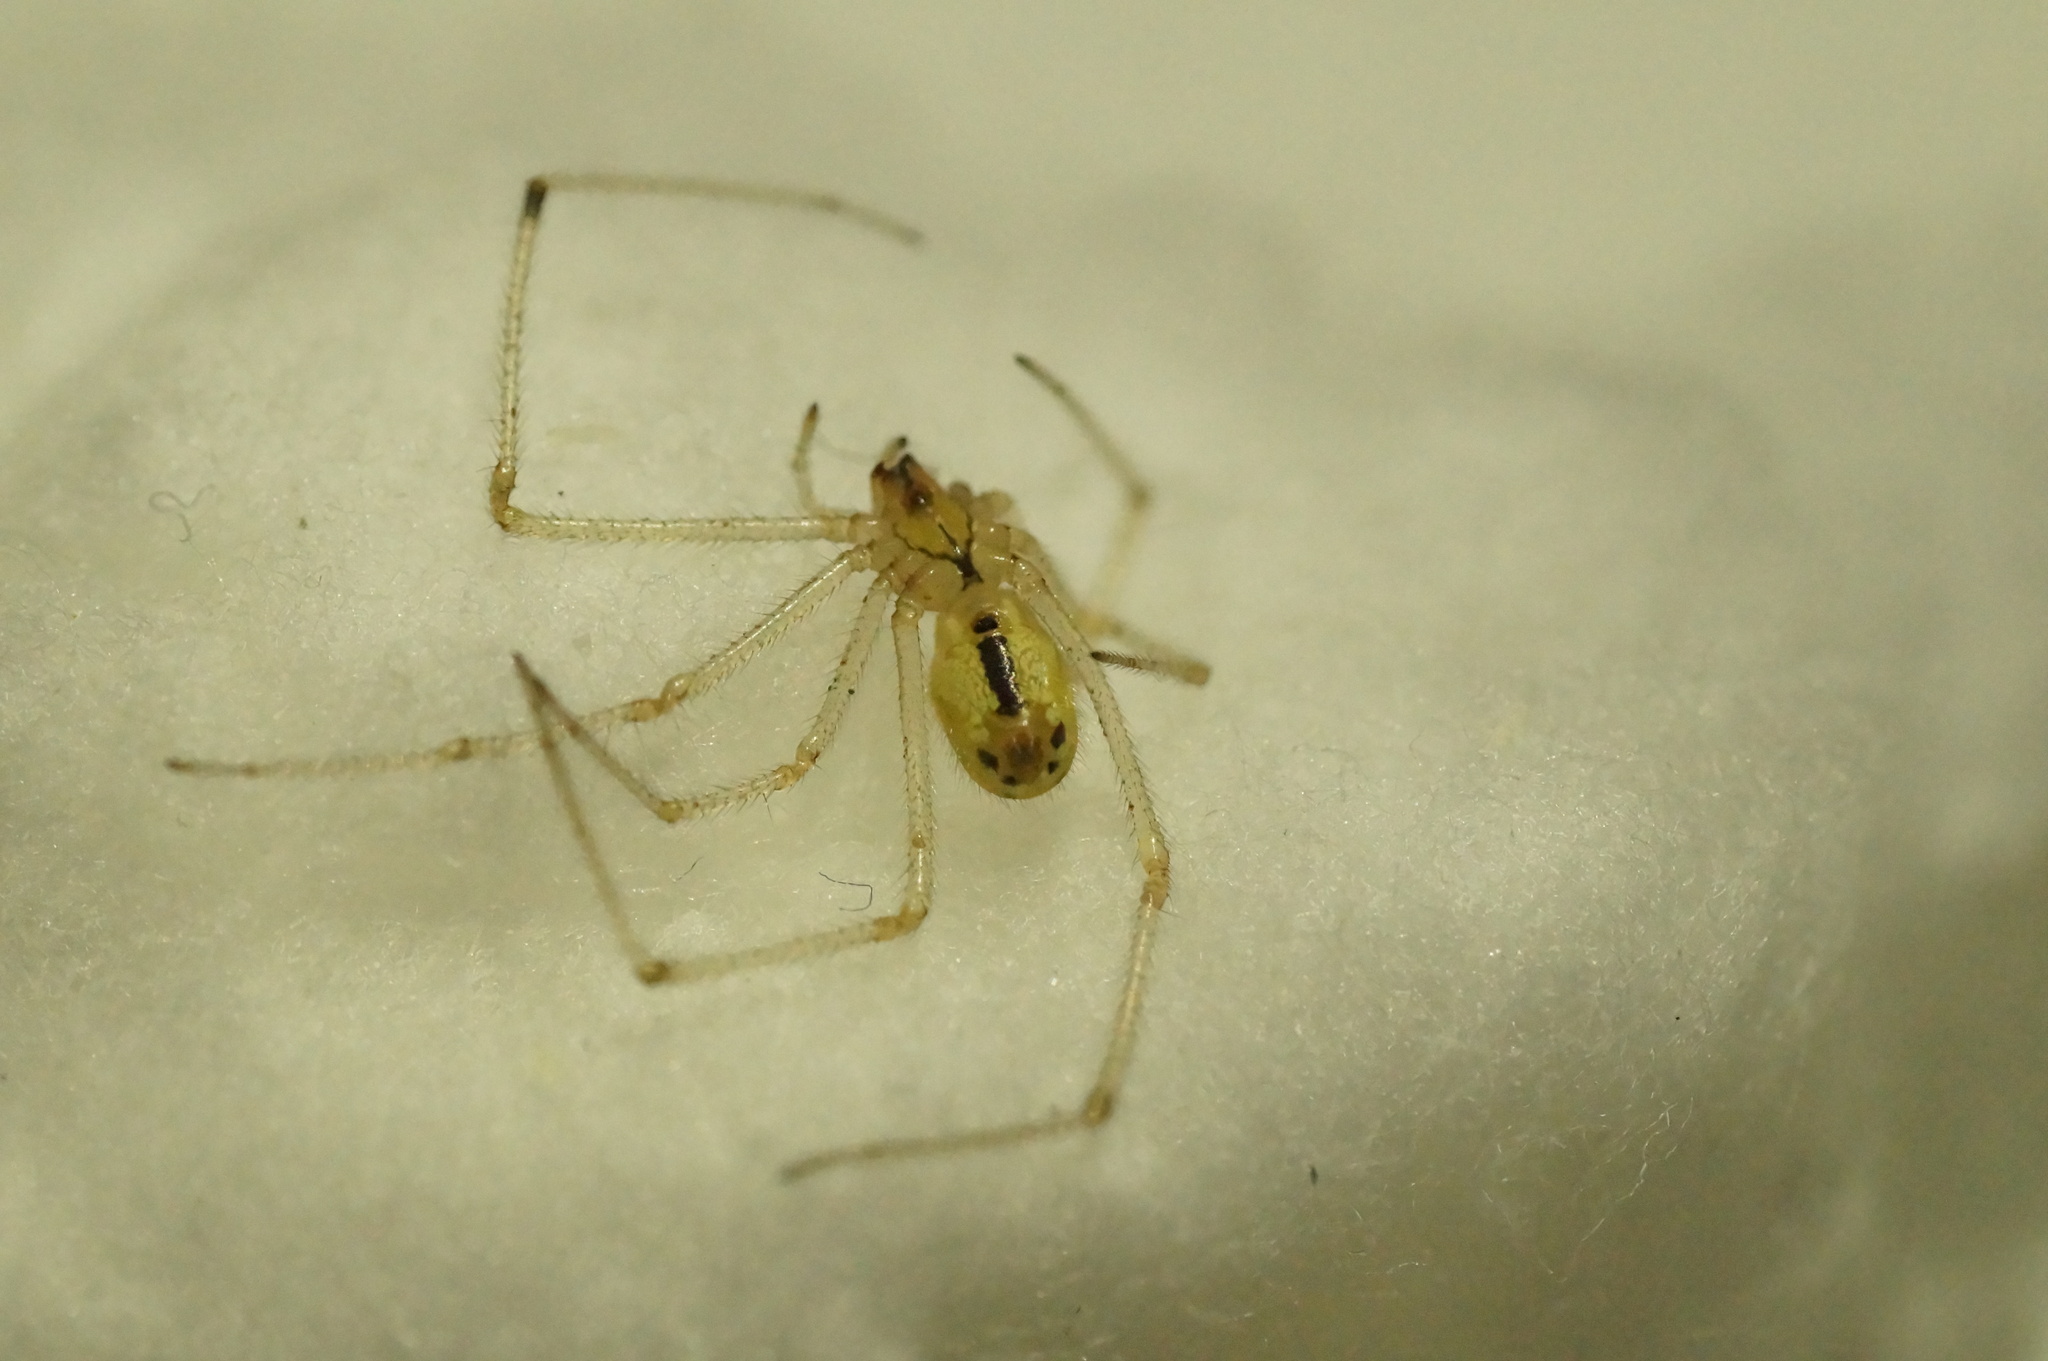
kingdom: Animalia
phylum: Arthropoda
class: Arachnida
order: Araneae
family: Theridiidae
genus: Enoplognatha
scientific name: Enoplognatha ovata
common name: Common candy-striped spider
